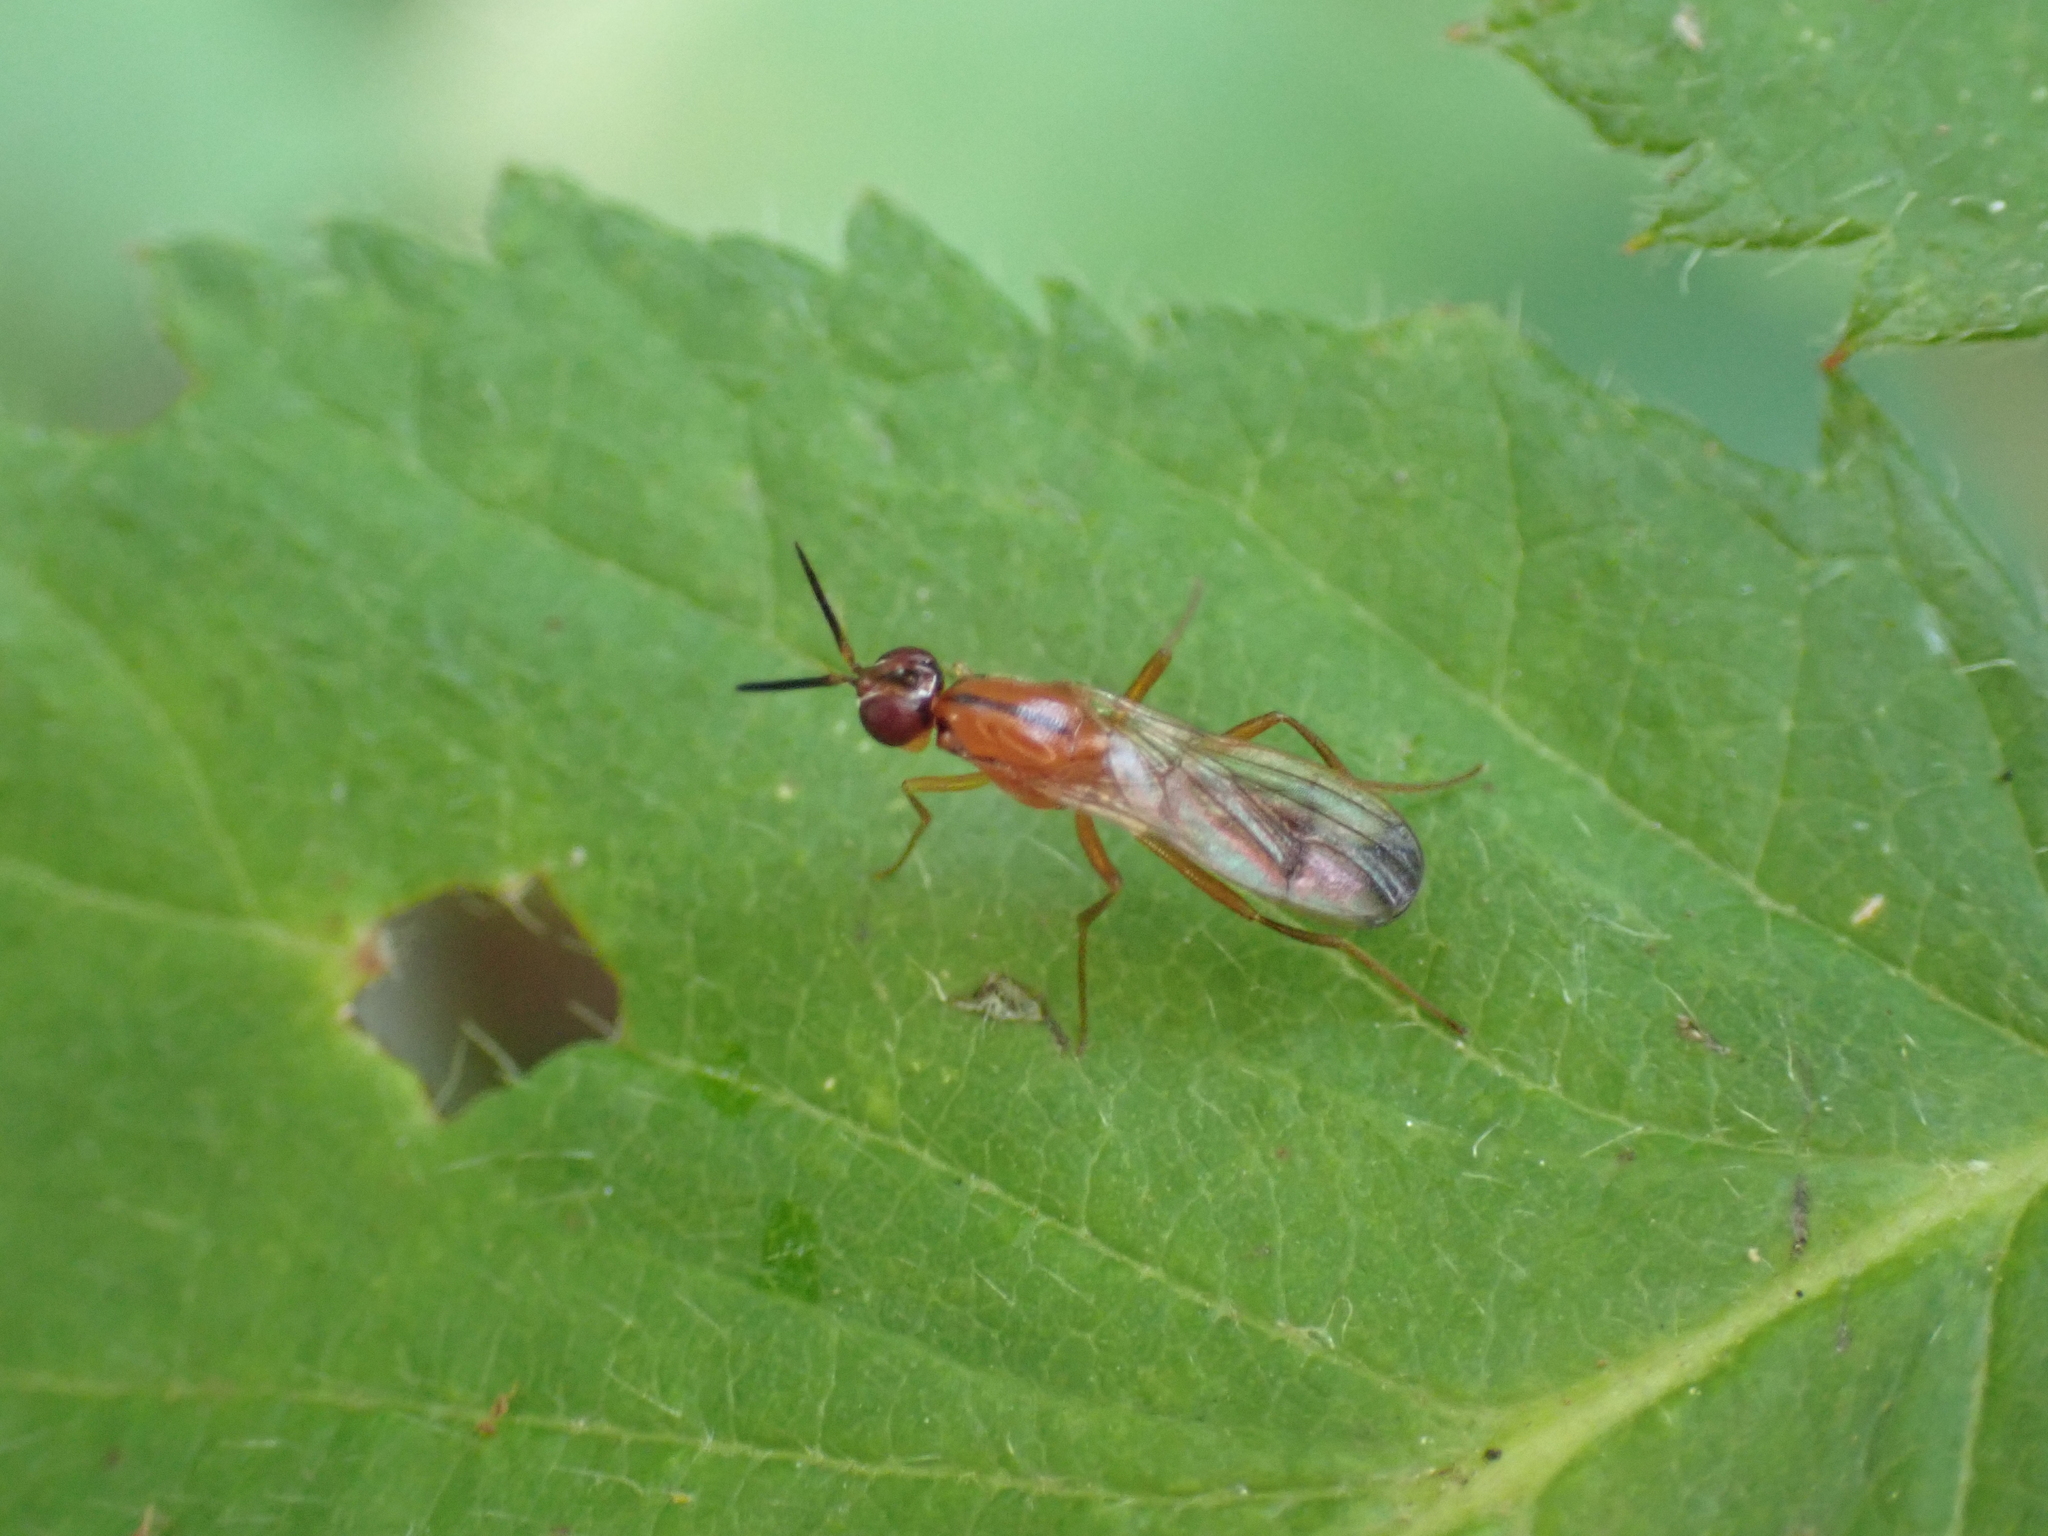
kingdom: Animalia
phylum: Arthropoda
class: Insecta
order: Diptera
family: Psilidae
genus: Loxocera
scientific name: Loxocera cylindrica
